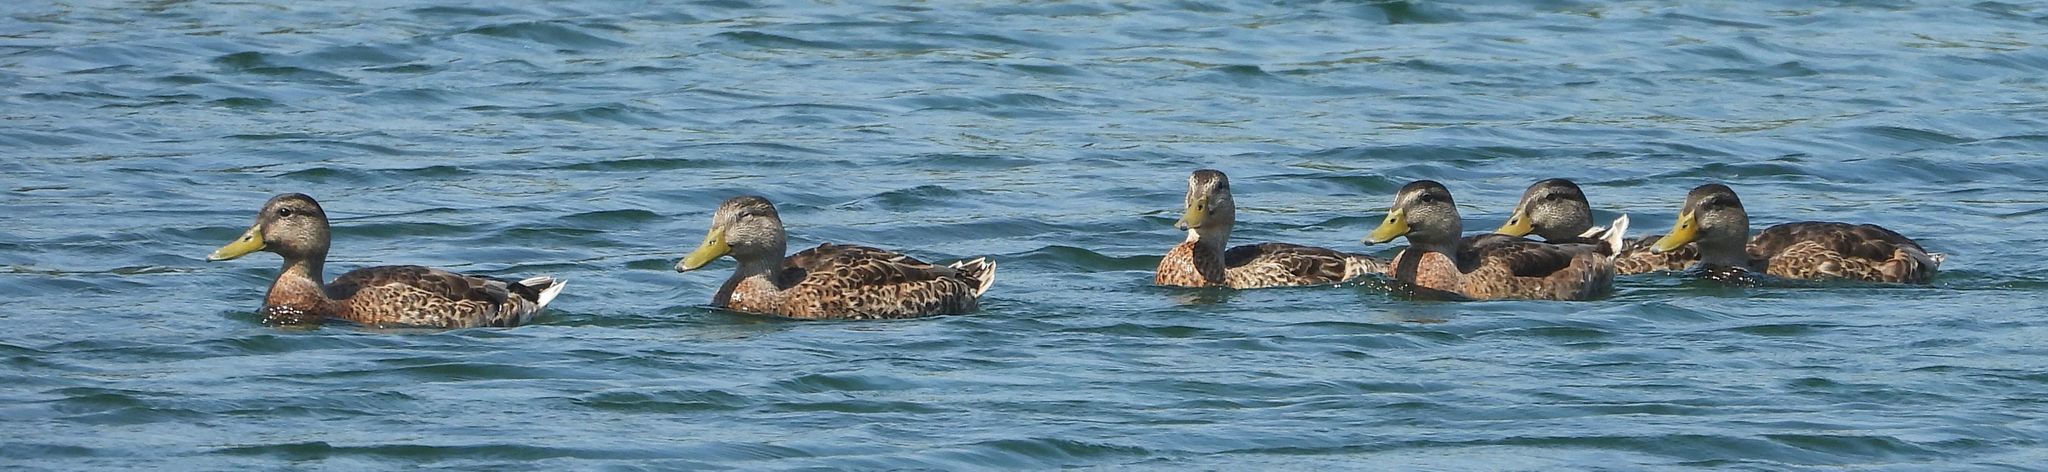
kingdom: Animalia
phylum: Chordata
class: Aves
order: Anseriformes
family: Anatidae
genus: Anas
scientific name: Anas platyrhynchos
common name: Mallard
